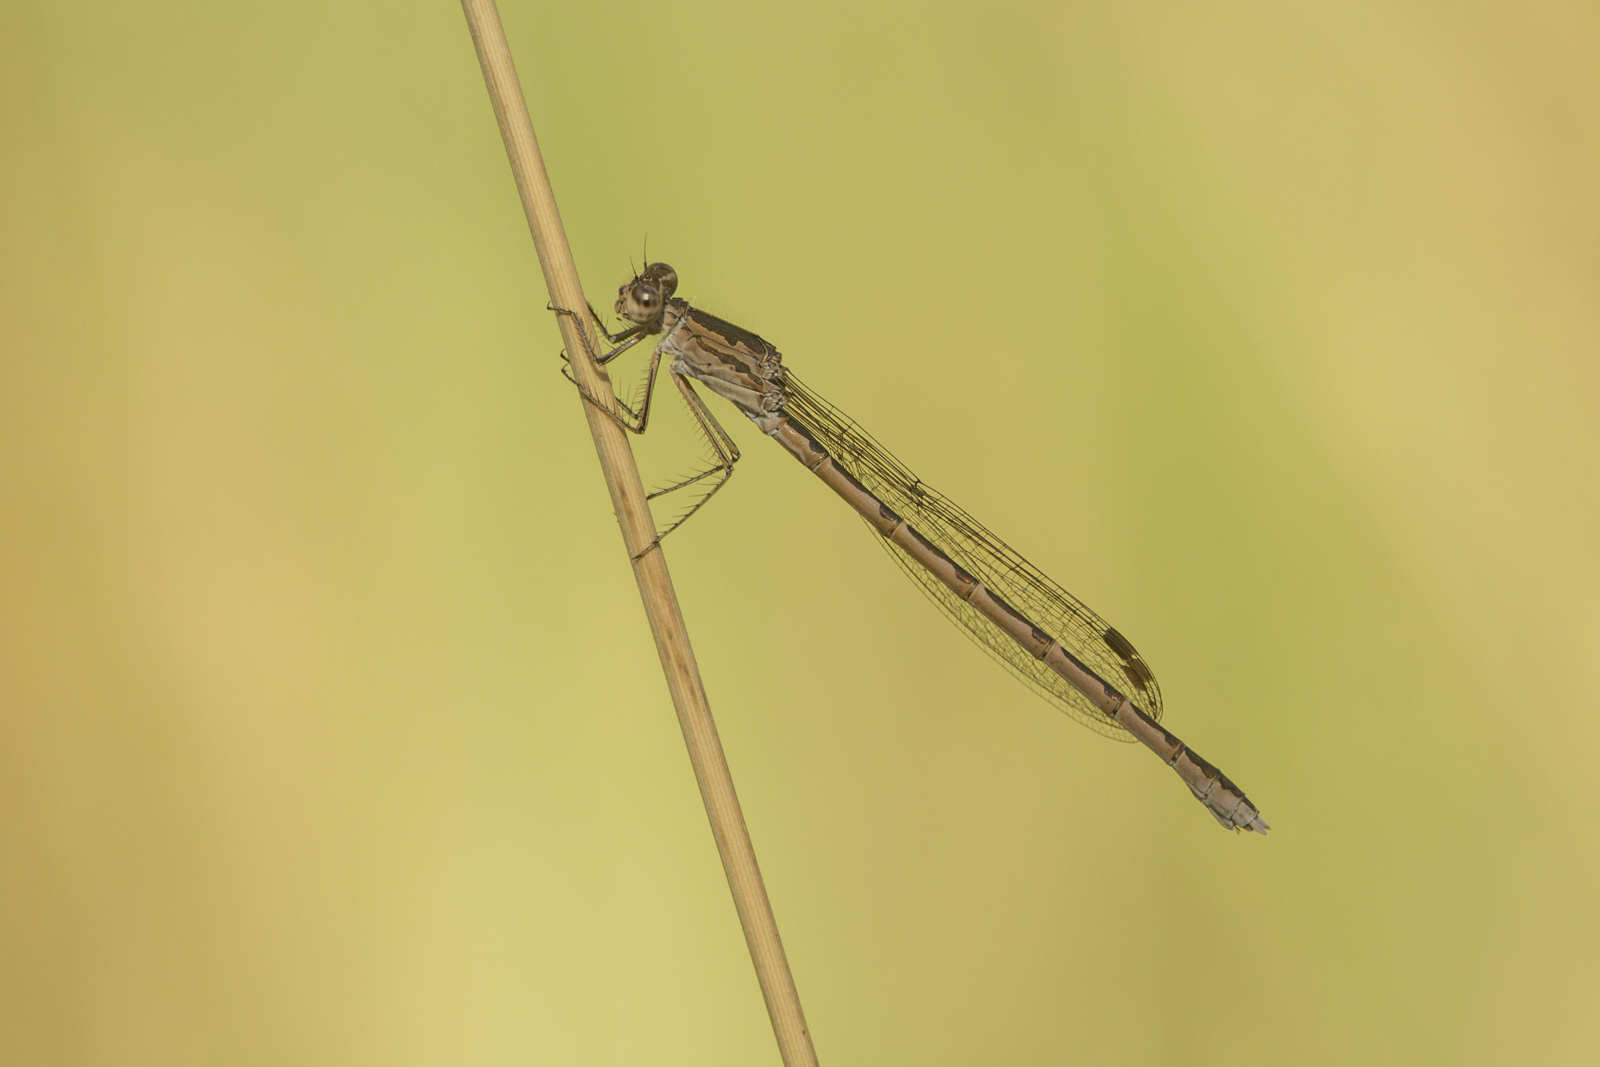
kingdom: Animalia
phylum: Arthropoda
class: Insecta
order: Odonata
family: Lestidae
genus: Sympecma
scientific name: Sympecma paedisca
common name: Siberian winter damsel
